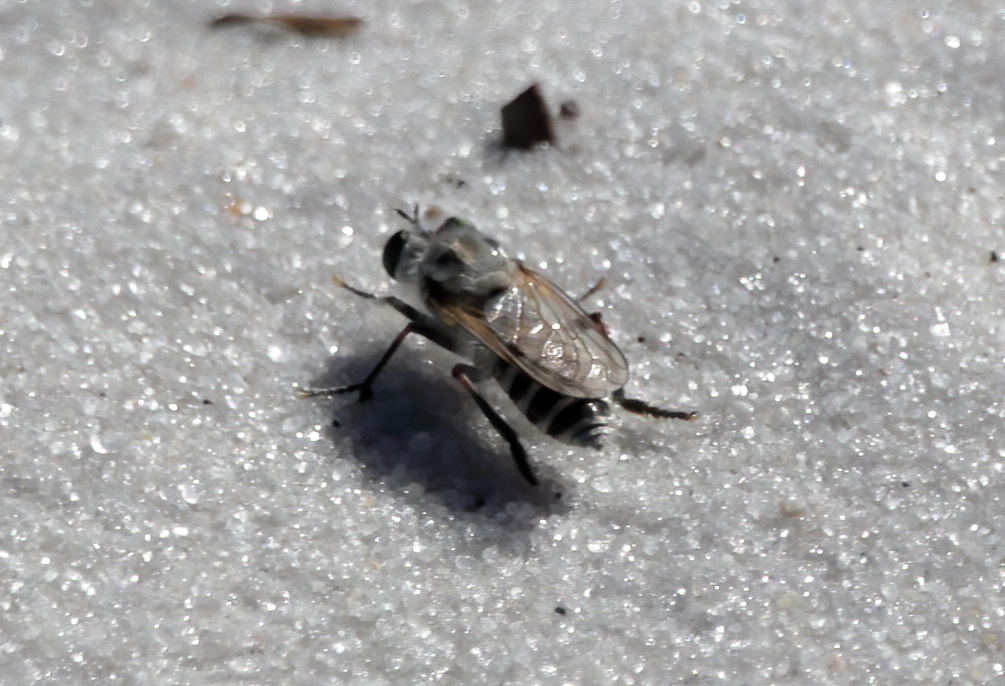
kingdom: Animalia
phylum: Arthropoda
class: Insecta
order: Diptera
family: Asilidae
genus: Laphystia
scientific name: Laphystia texensis
